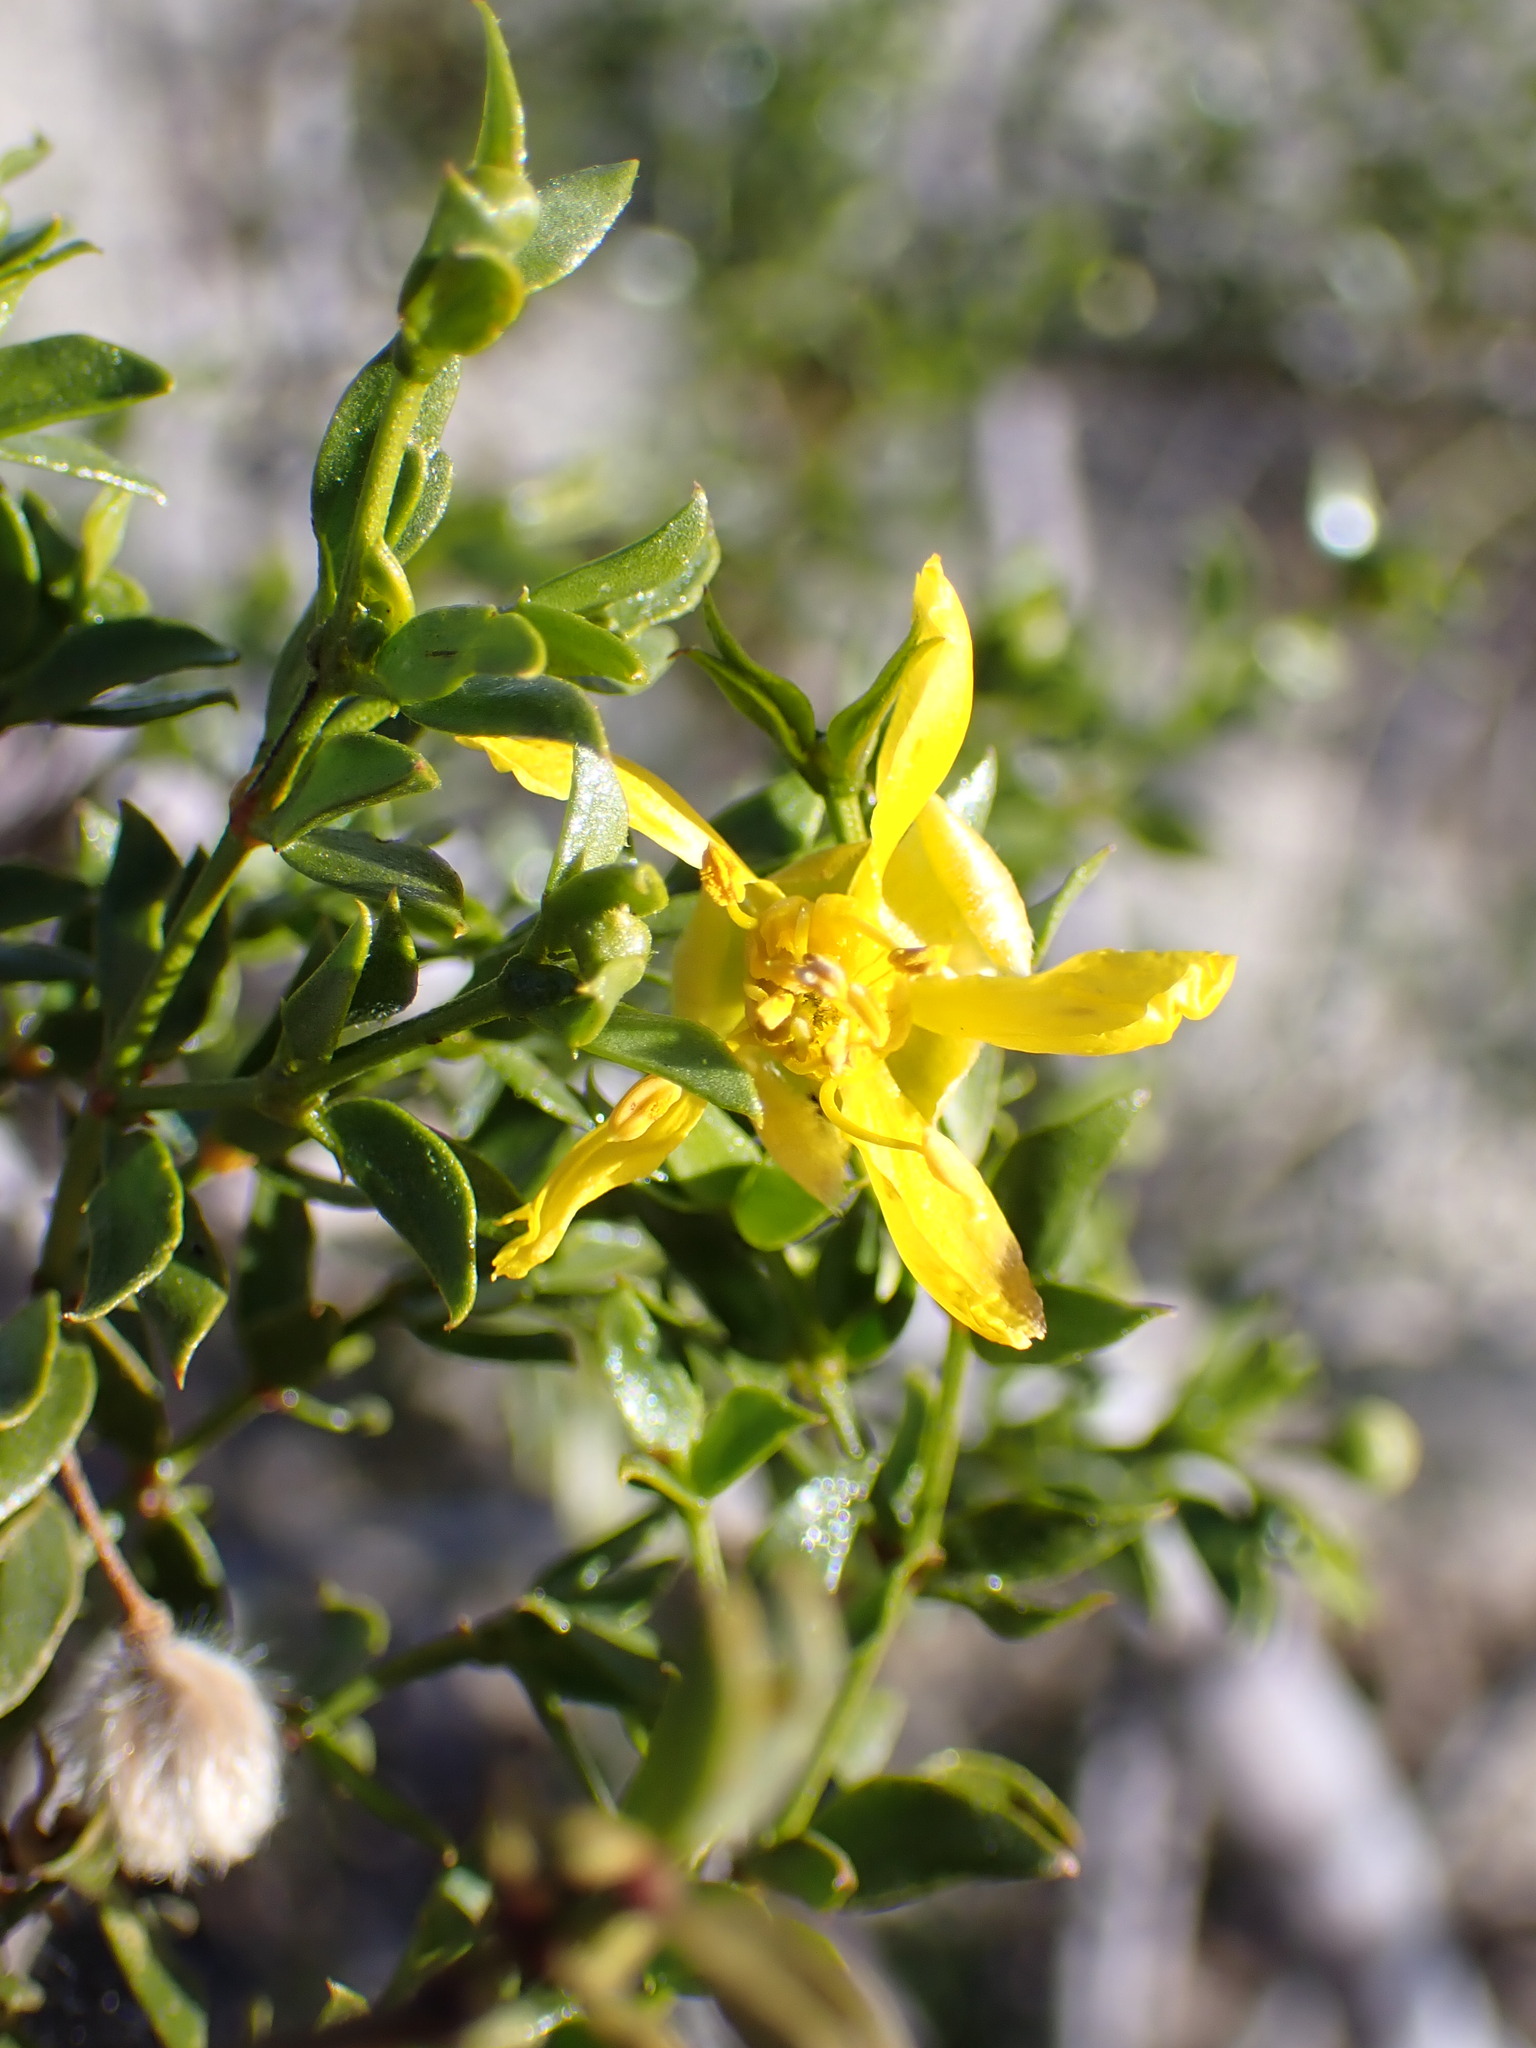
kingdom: Plantae
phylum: Tracheophyta
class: Magnoliopsida
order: Zygophyllales
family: Zygophyllaceae
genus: Larrea
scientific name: Larrea tridentata
